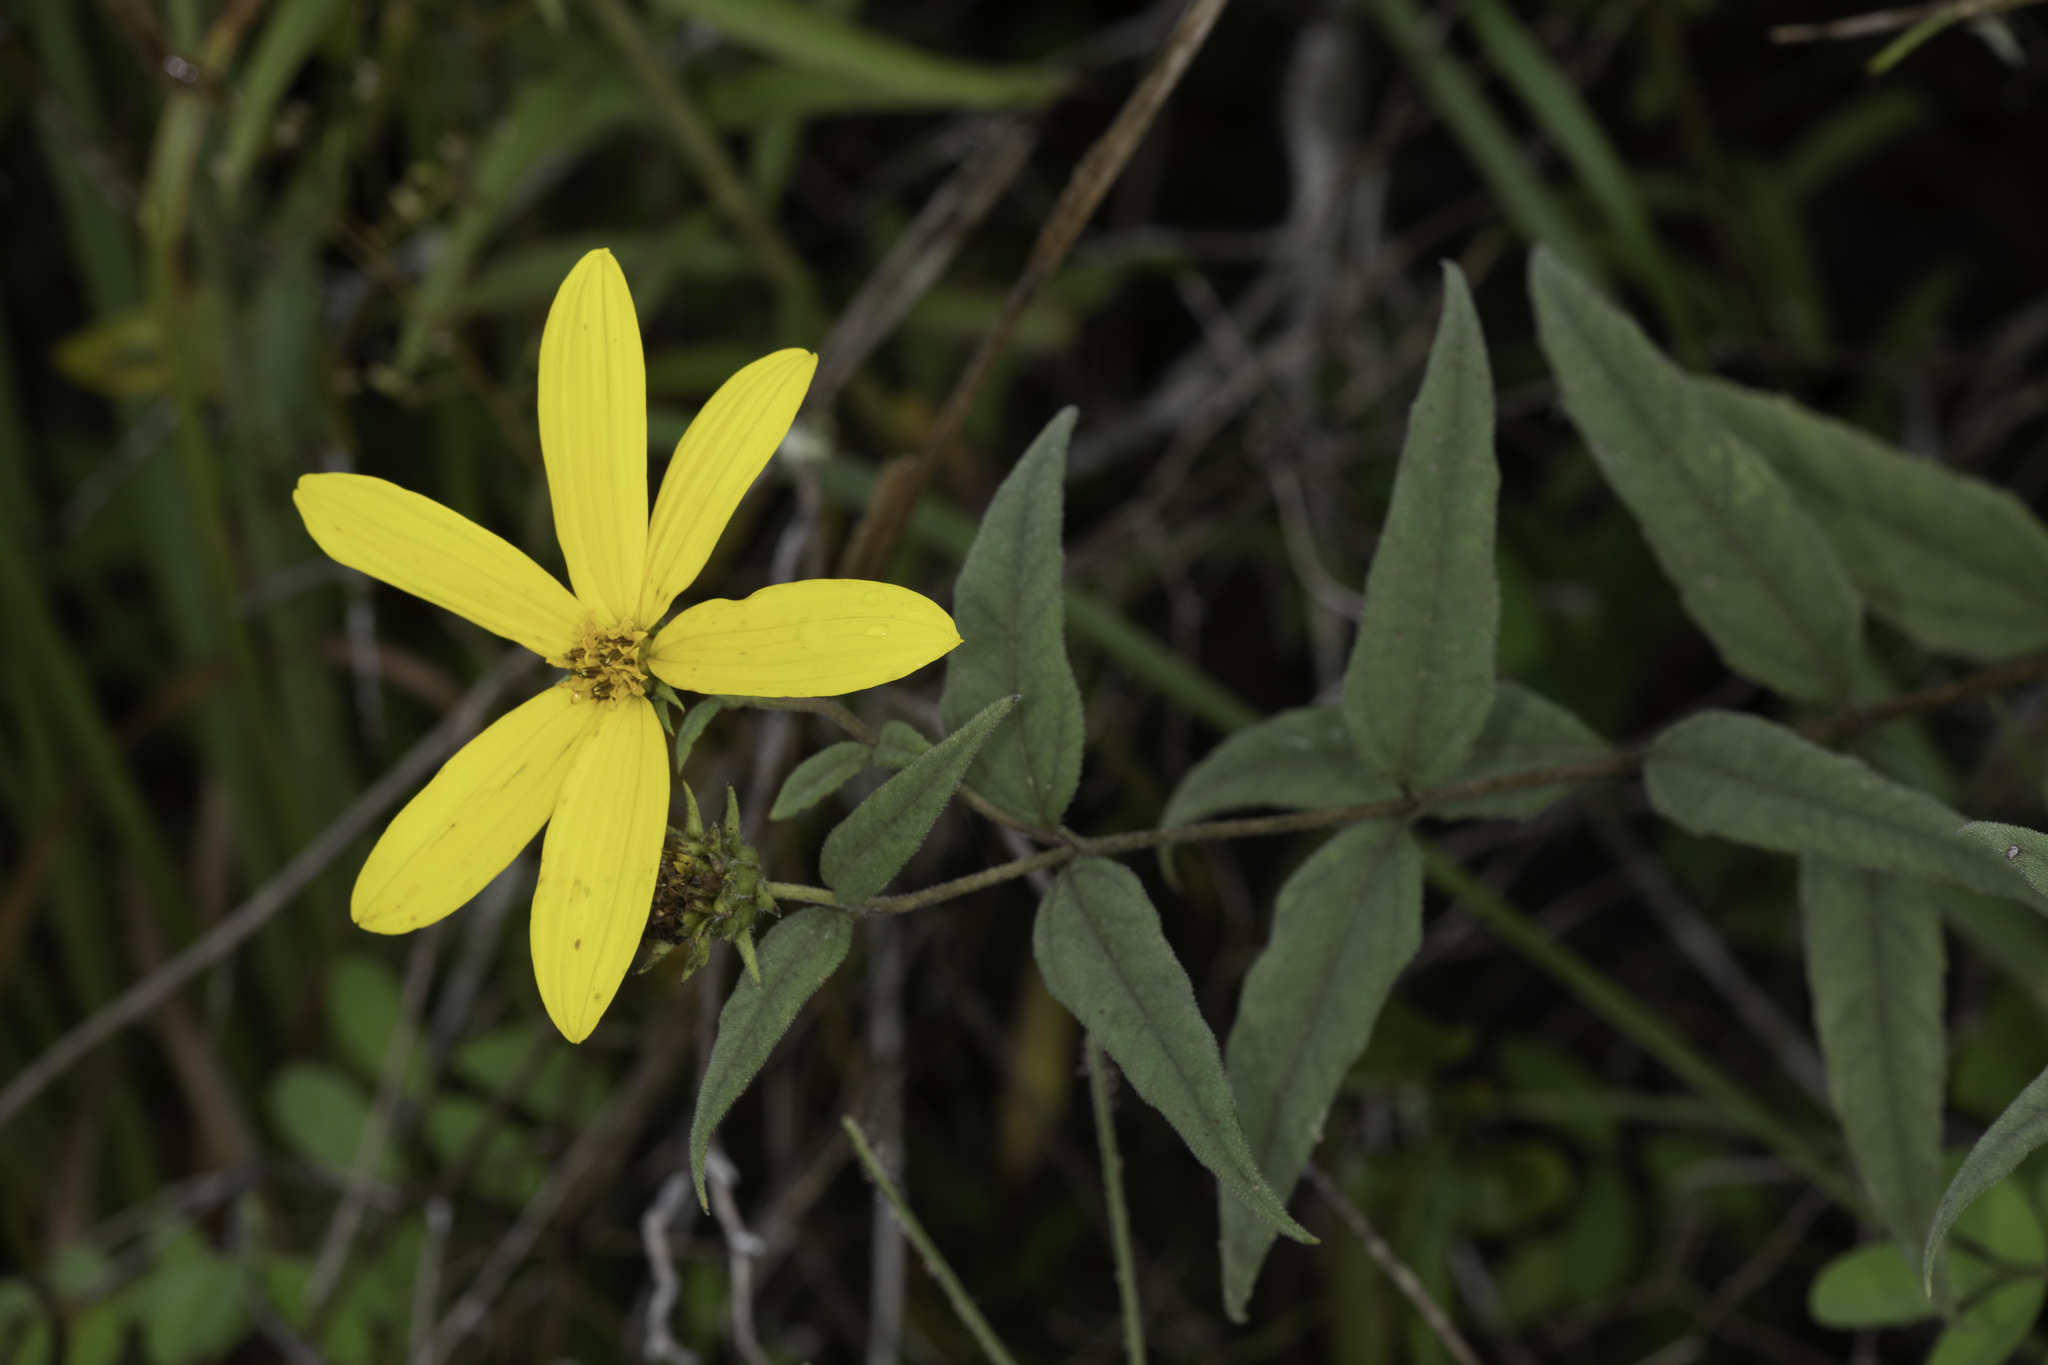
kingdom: Plantae
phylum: Tracheophyta
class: Magnoliopsida
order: Asterales
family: Asteraceae
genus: Helianthus
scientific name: Helianthus hirsutus
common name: Hairy sunflower
